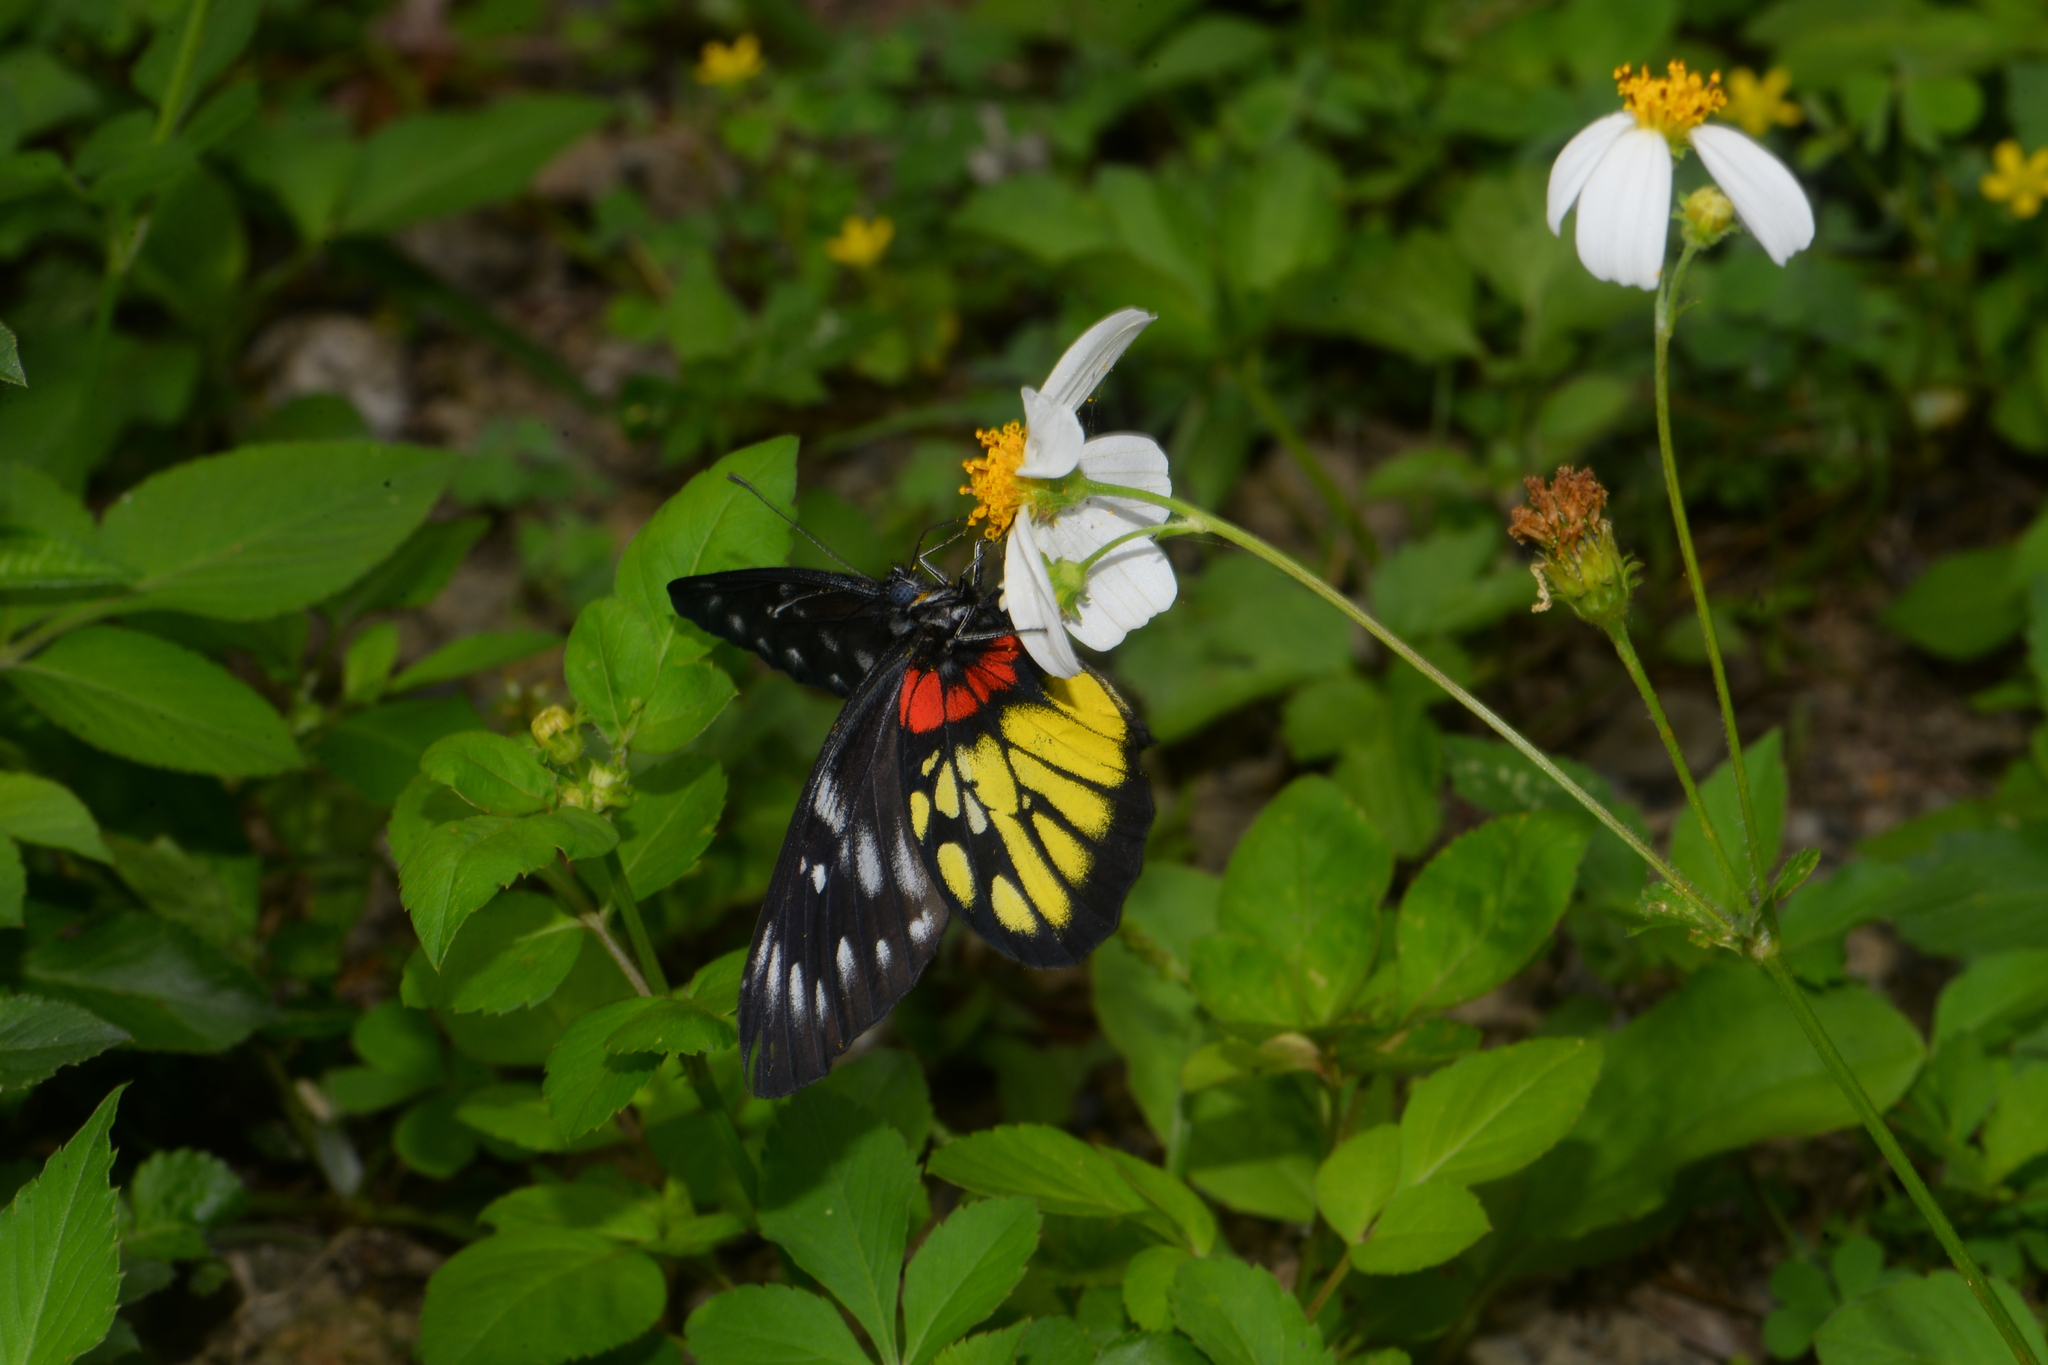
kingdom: Animalia
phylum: Arthropoda
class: Insecta
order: Lepidoptera
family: Pieridae
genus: Delias
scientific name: Delias pasithoe
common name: Red-base jezebel
